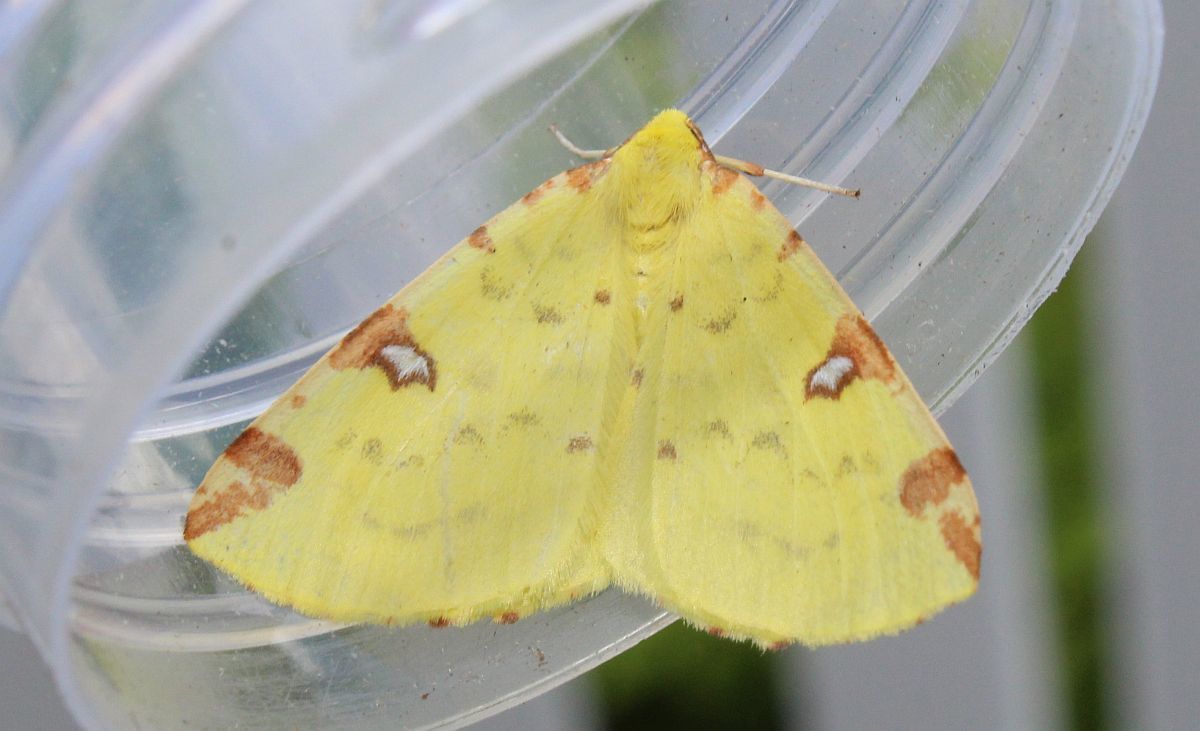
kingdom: Animalia
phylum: Arthropoda
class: Insecta
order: Lepidoptera
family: Geometridae
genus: Opisthograptis
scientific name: Opisthograptis luteolata
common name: Brimstone moth
